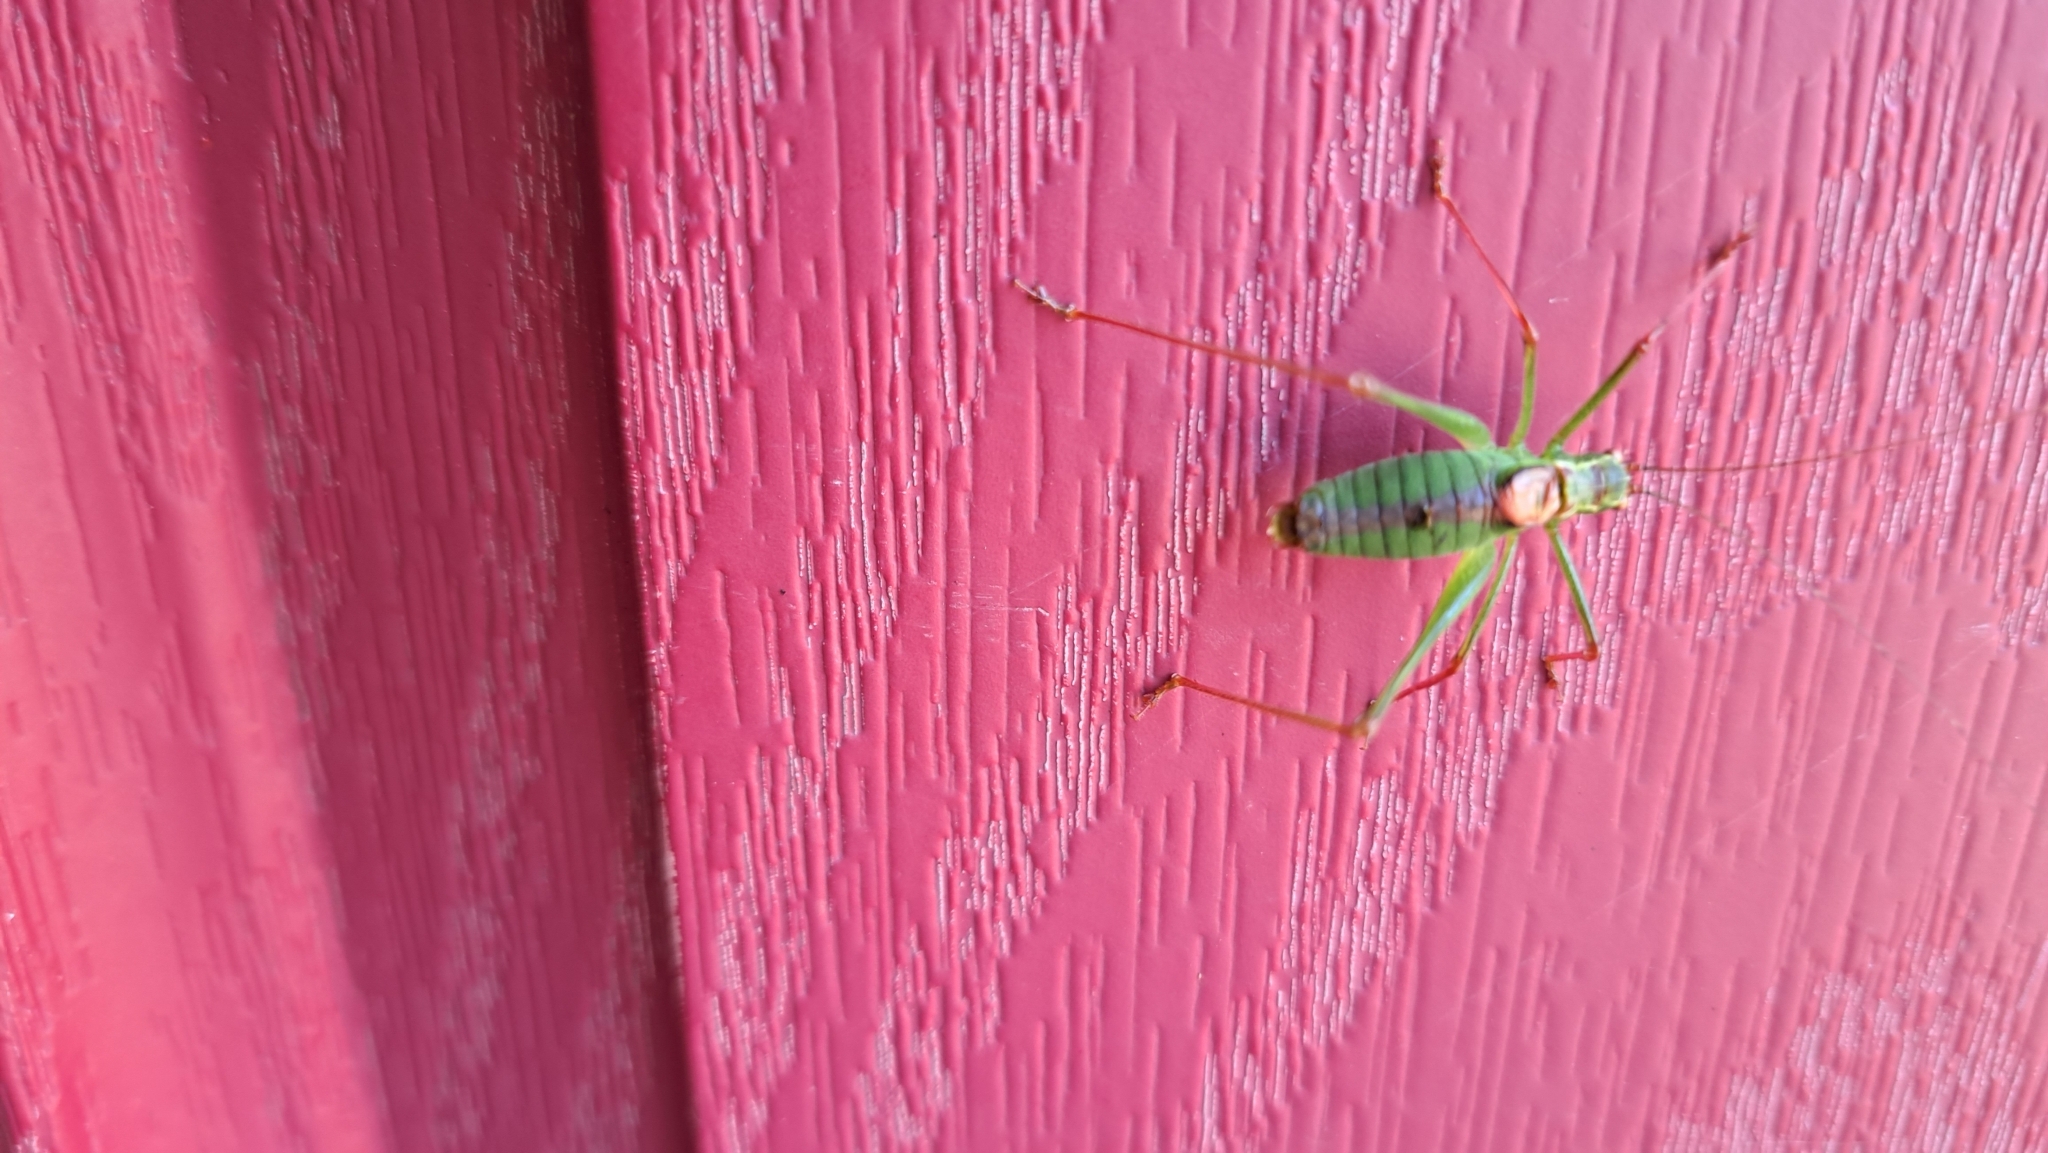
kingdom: Animalia
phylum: Arthropoda
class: Insecta
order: Orthoptera
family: Tettigoniidae
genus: Leptophyes
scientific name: Leptophyes punctatissima
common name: Speckled bush-cricket
